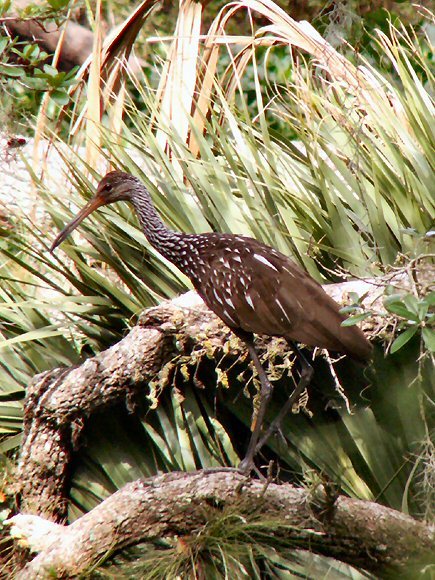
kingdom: Animalia
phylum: Chordata
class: Aves
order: Gruiformes
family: Aramidae
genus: Aramus
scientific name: Aramus guarauna
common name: Limpkin
